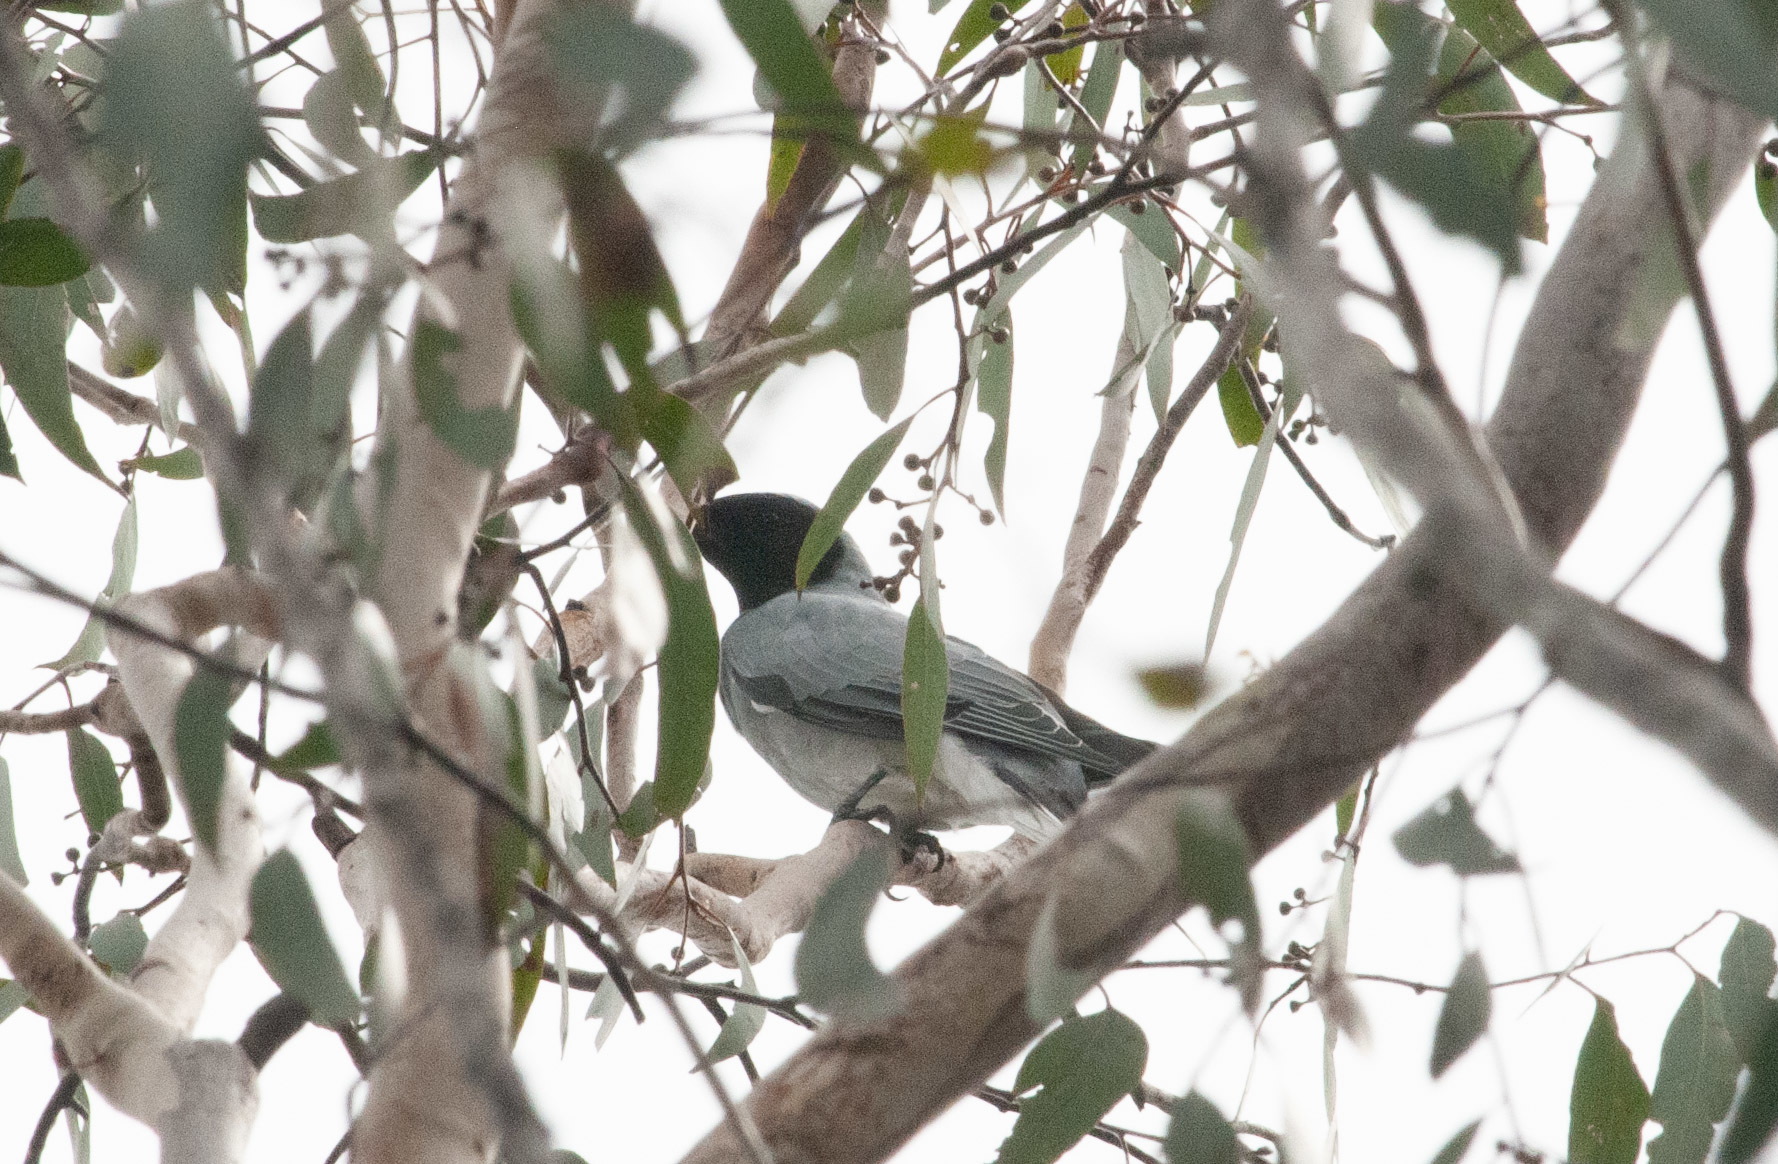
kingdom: Animalia
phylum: Chordata
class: Aves
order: Passeriformes
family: Campephagidae
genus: Coracina
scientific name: Coracina novaehollandiae
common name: Black-faced cuckooshrike
